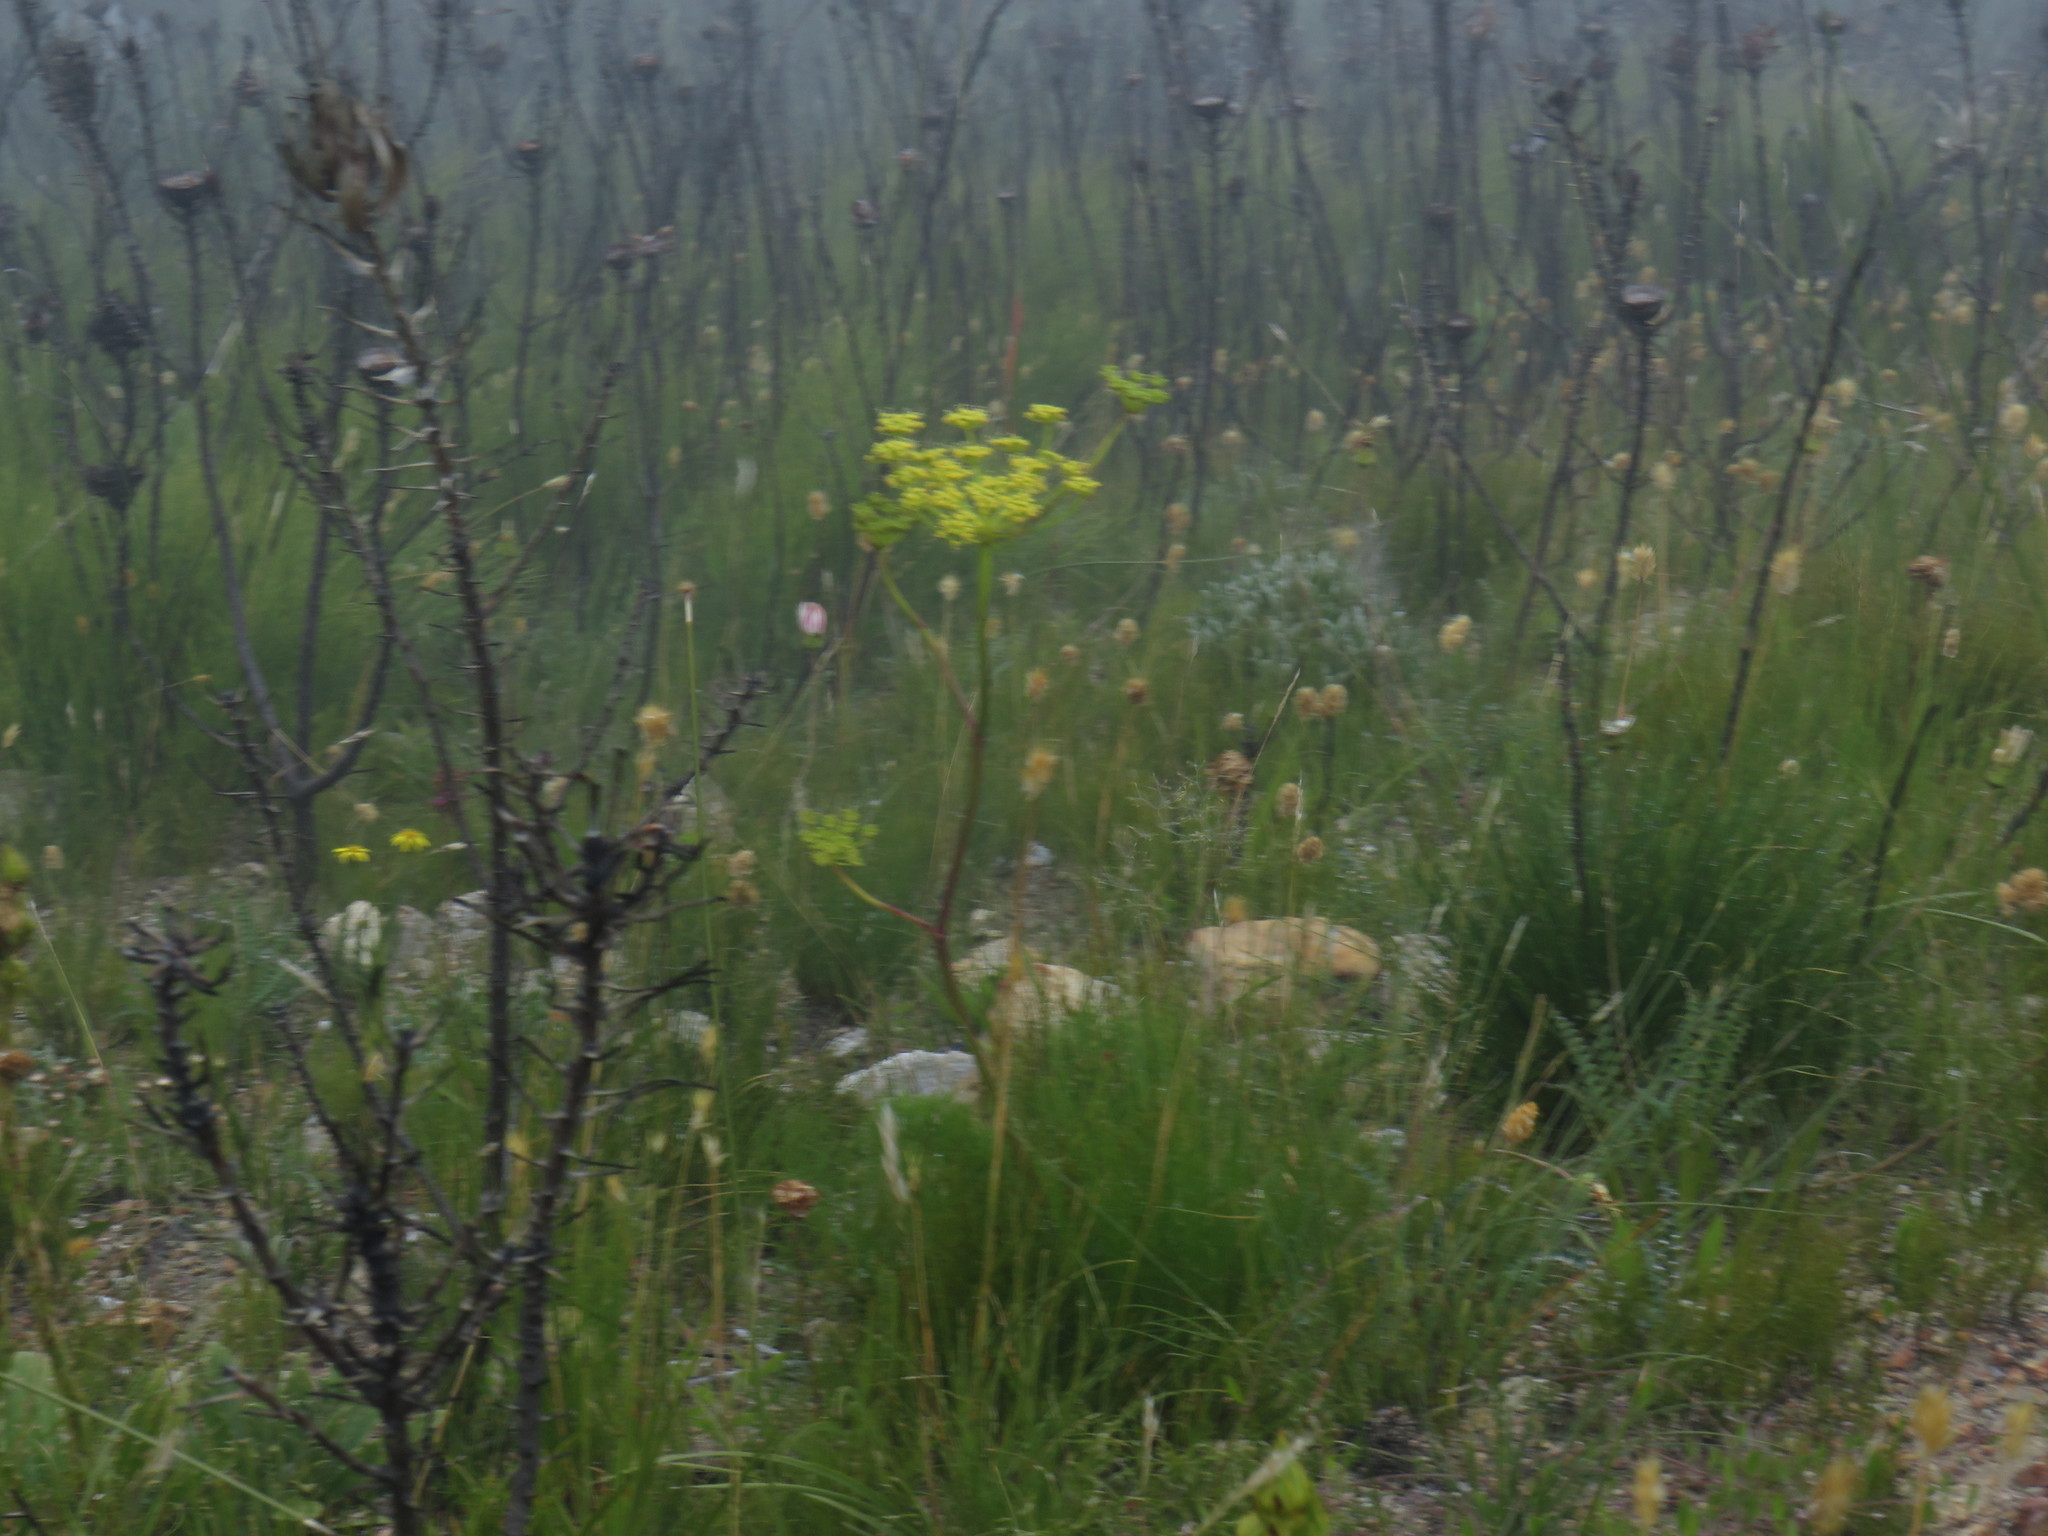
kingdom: Plantae
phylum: Tracheophyta
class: Magnoliopsida
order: Apiales
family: Apiaceae
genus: Nanobubon
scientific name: Nanobubon strictum
